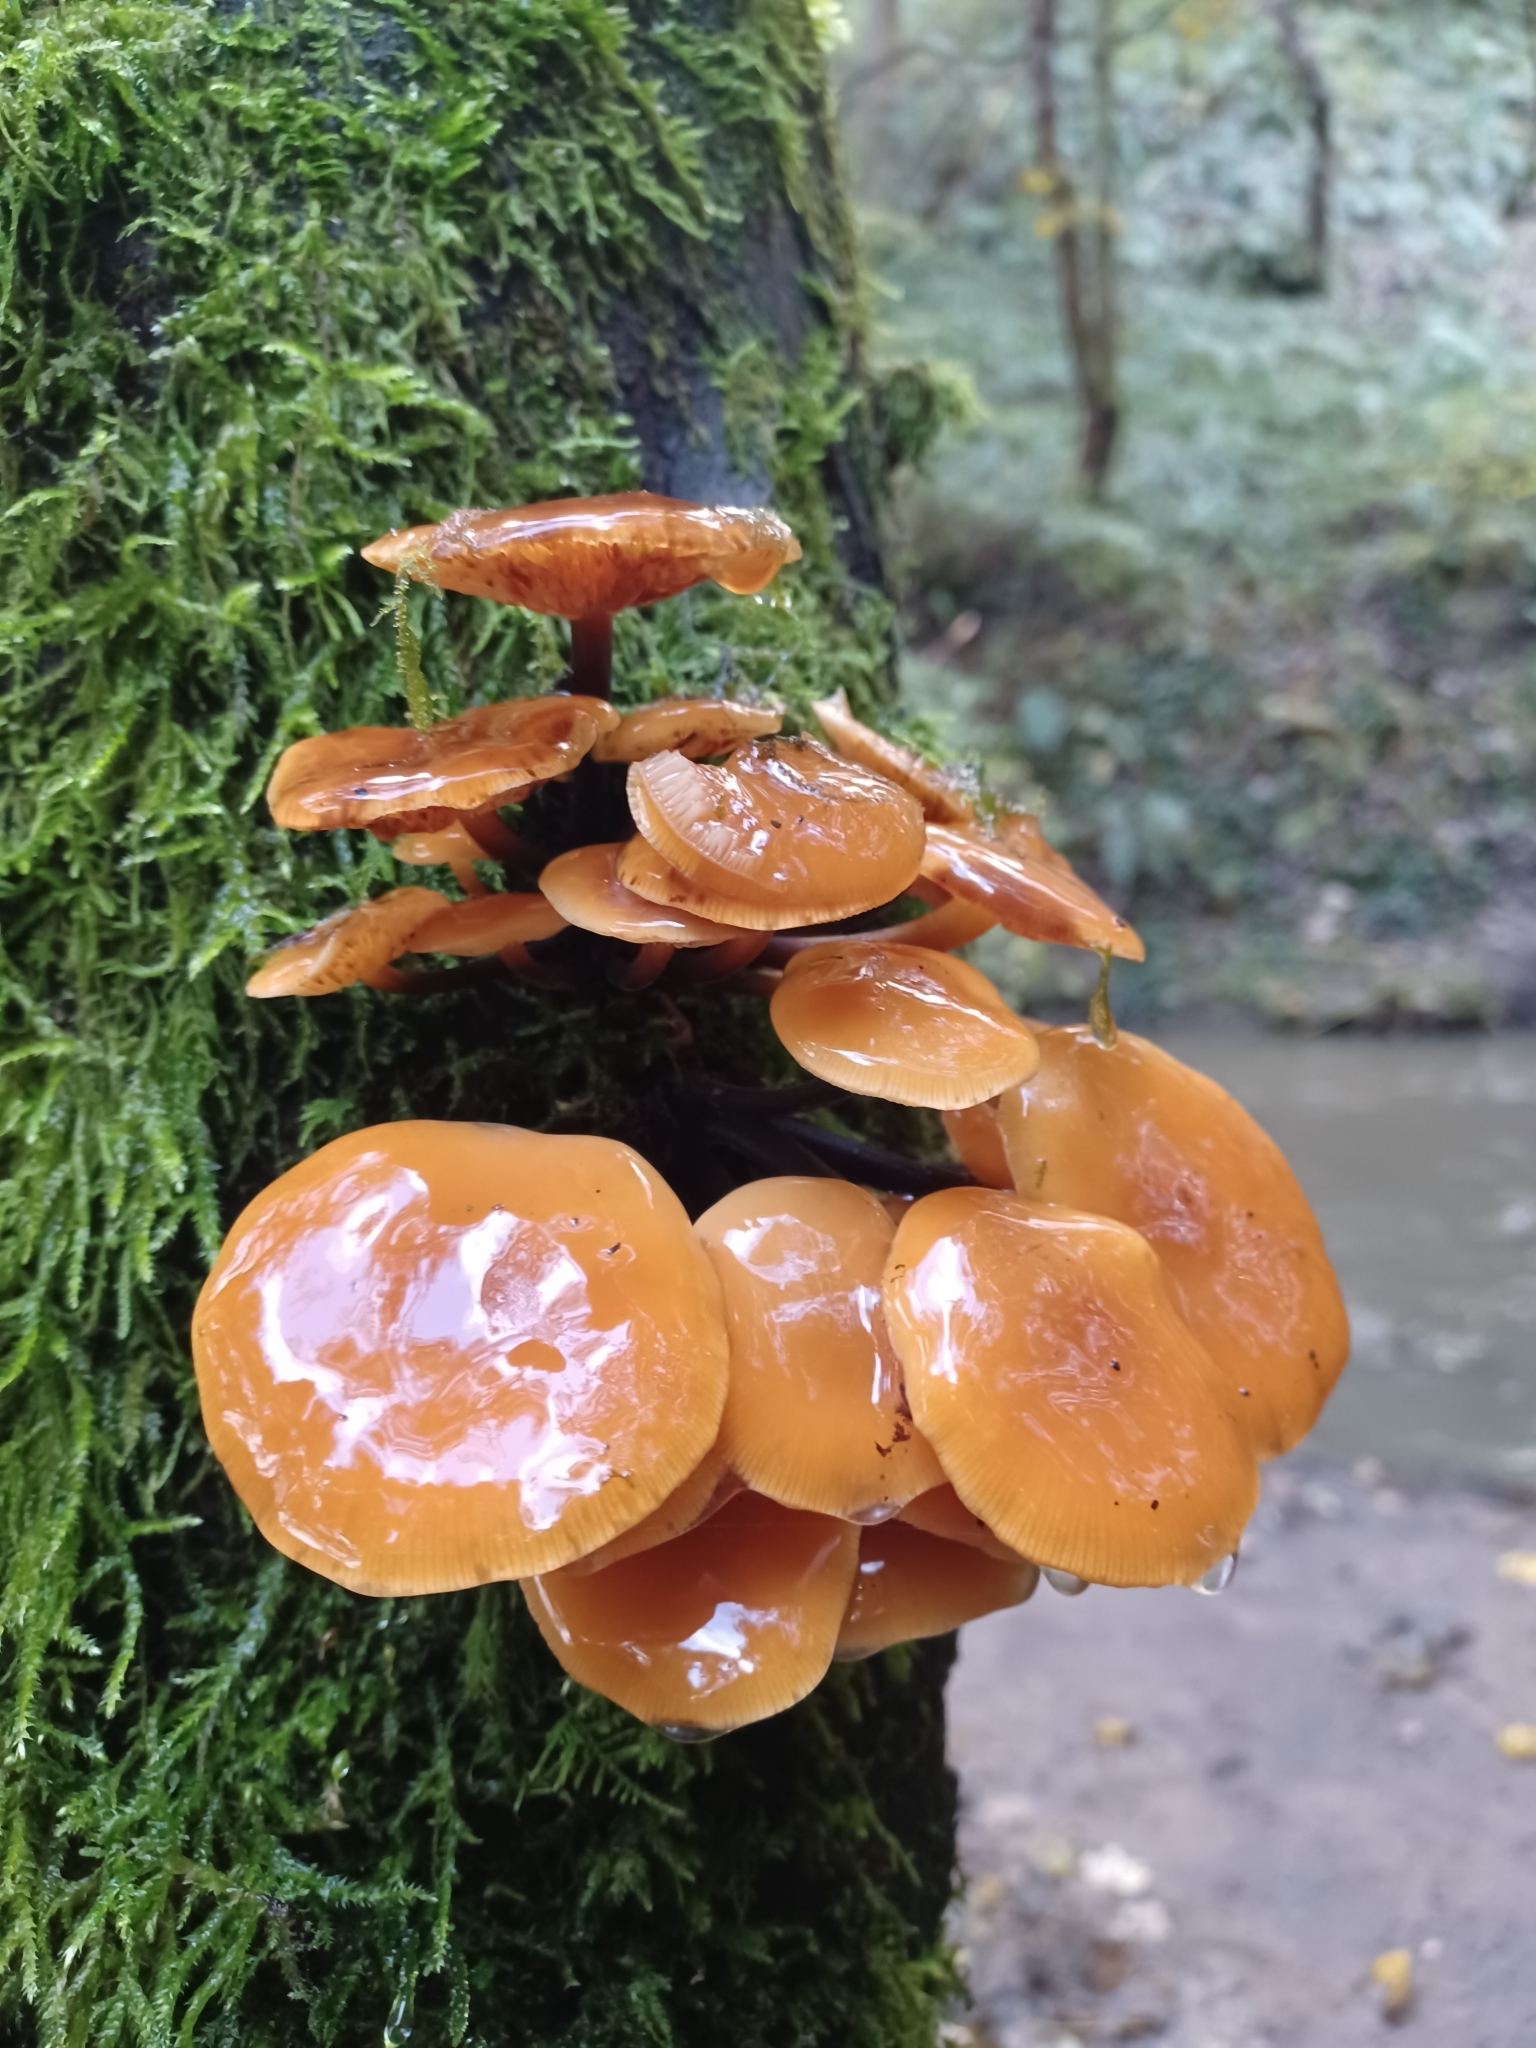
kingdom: Fungi
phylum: Basidiomycota
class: Agaricomycetes
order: Agaricales
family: Physalacriaceae
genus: Flammulina
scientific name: Flammulina
